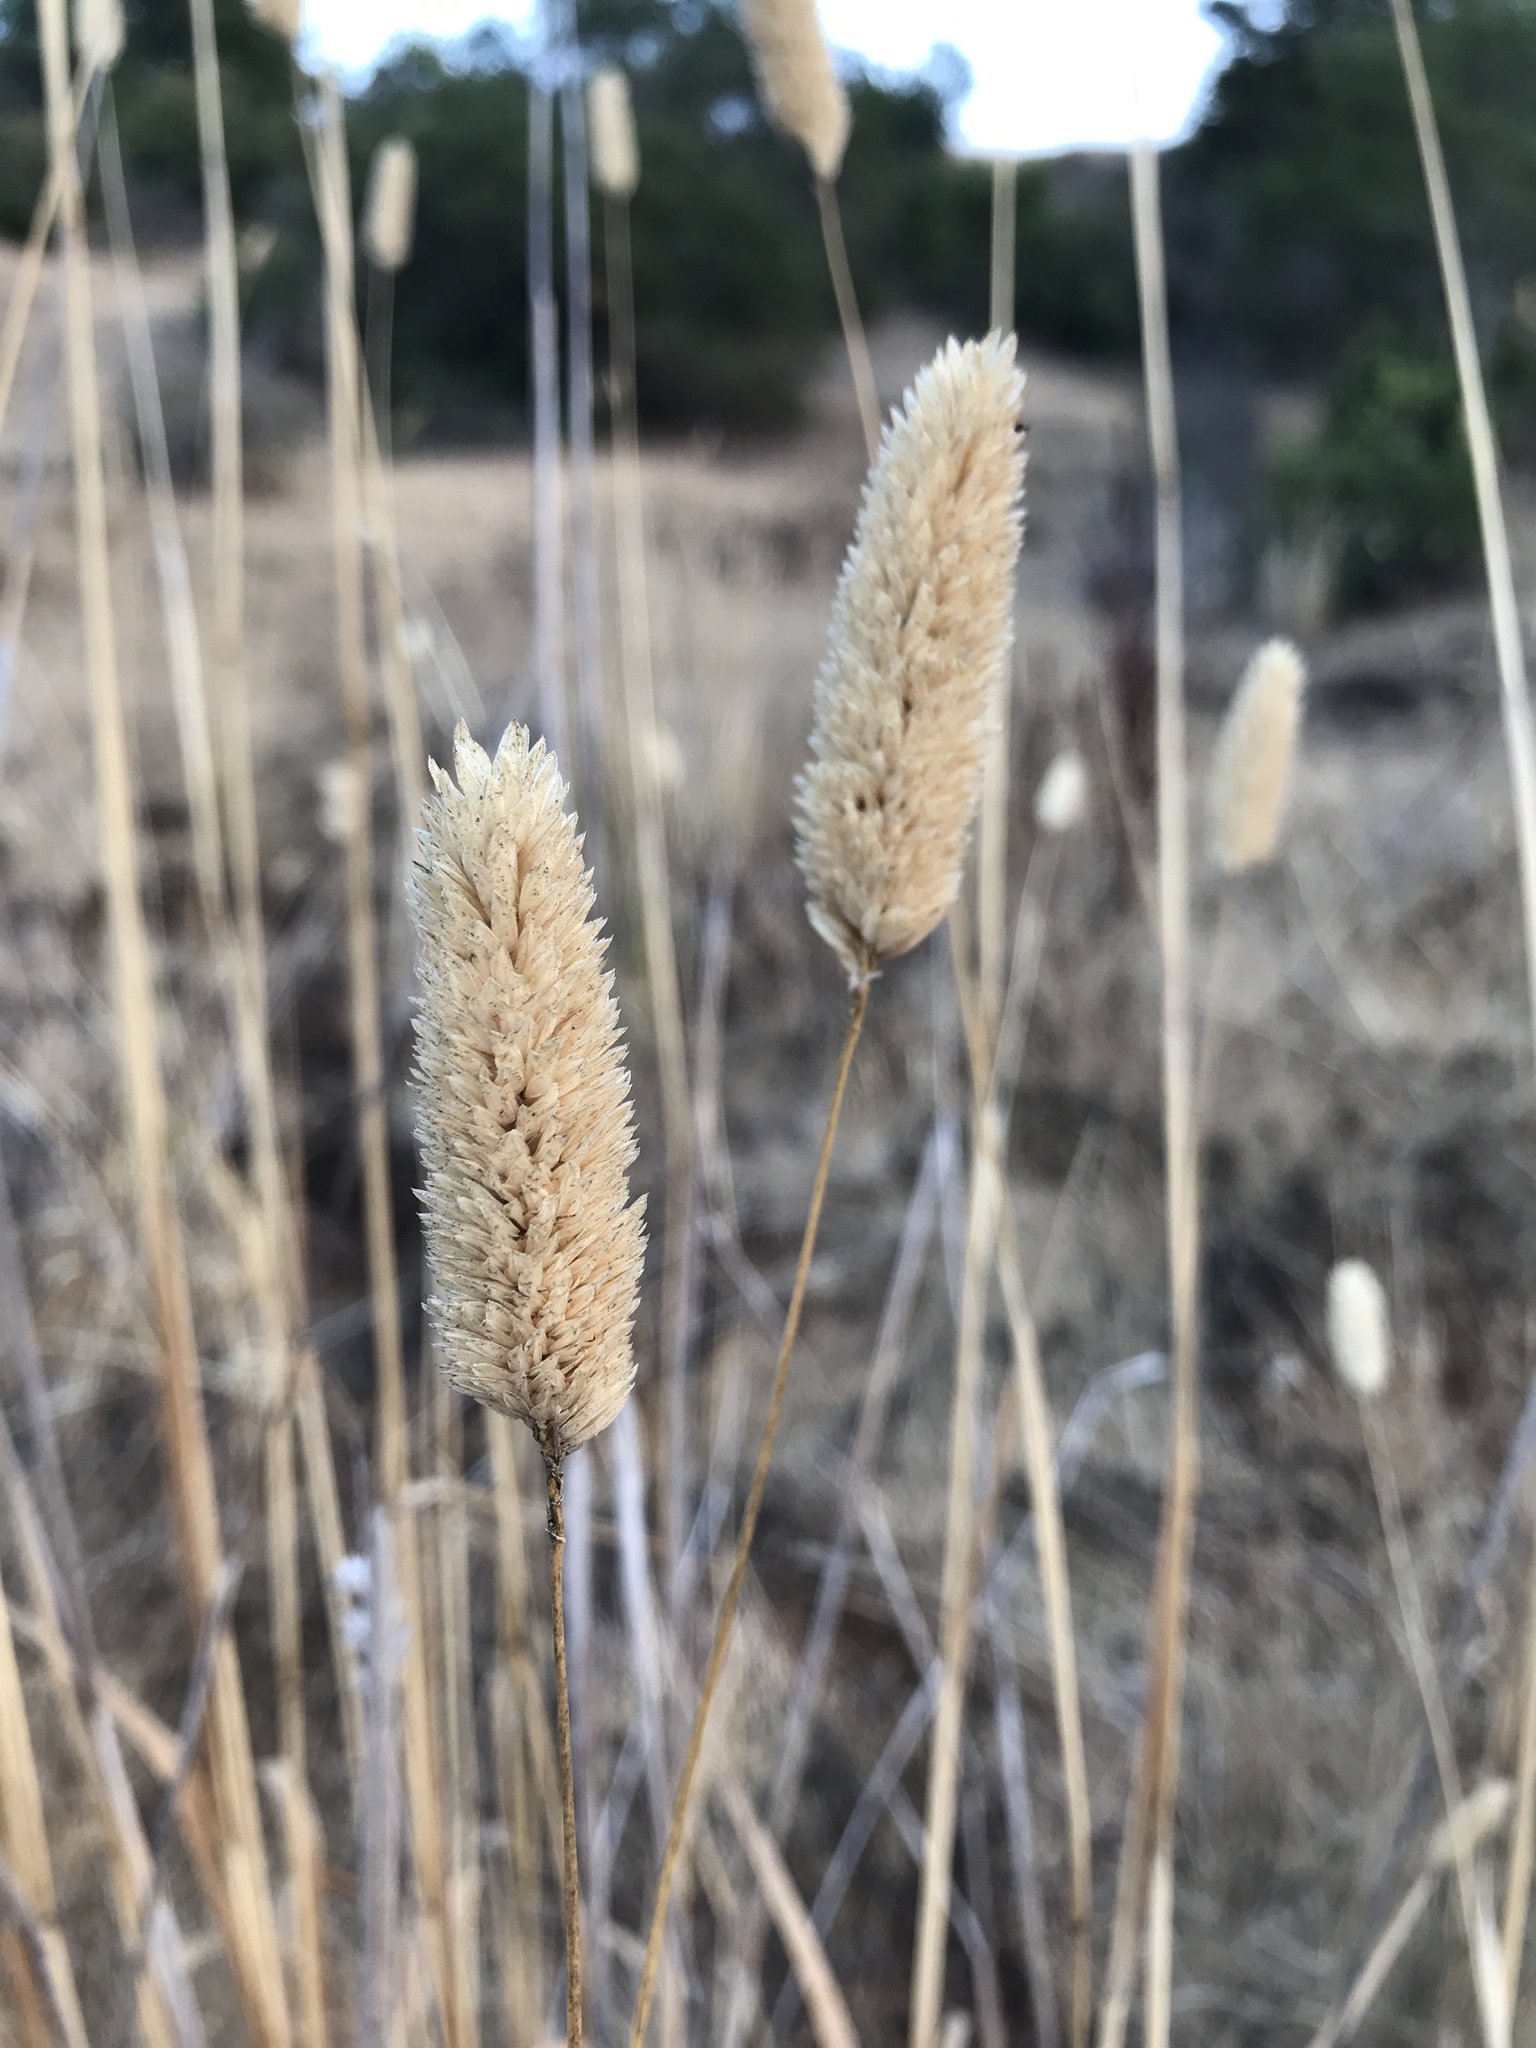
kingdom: Plantae
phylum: Tracheophyta
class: Liliopsida
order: Poales
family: Poaceae
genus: Phalaris
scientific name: Phalaris aquatica
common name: Bulbous canary-grass
